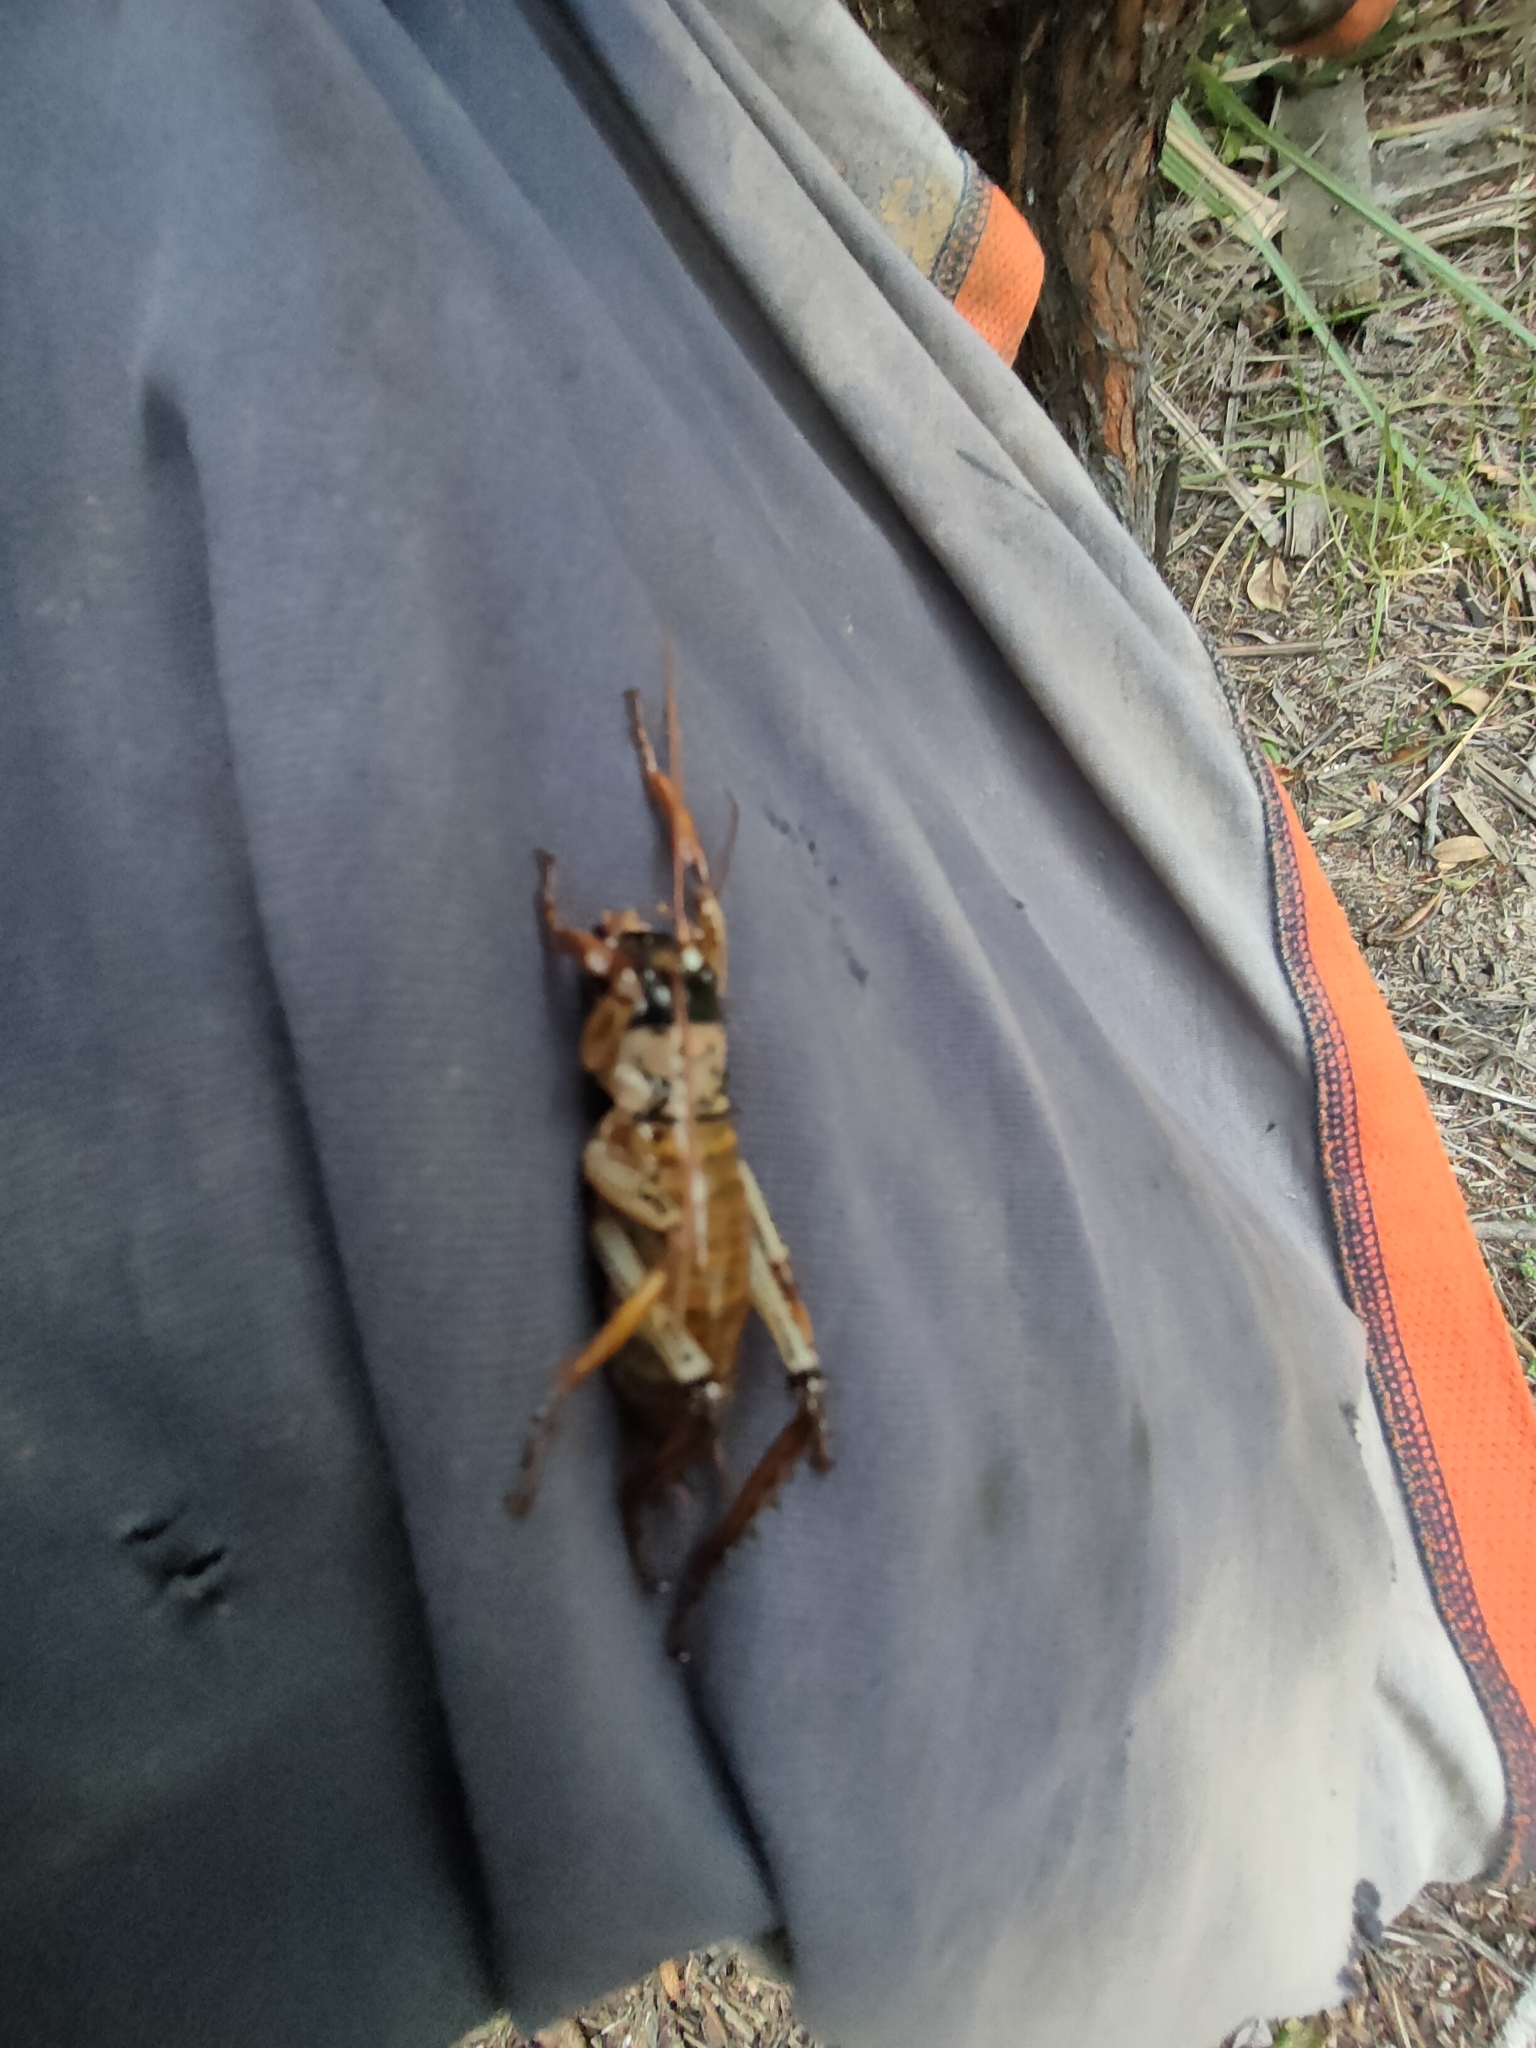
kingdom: Animalia
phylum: Arthropoda
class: Insecta
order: Orthoptera
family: Anostostomatidae
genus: Hemideina
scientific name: Hemideina thoracica
